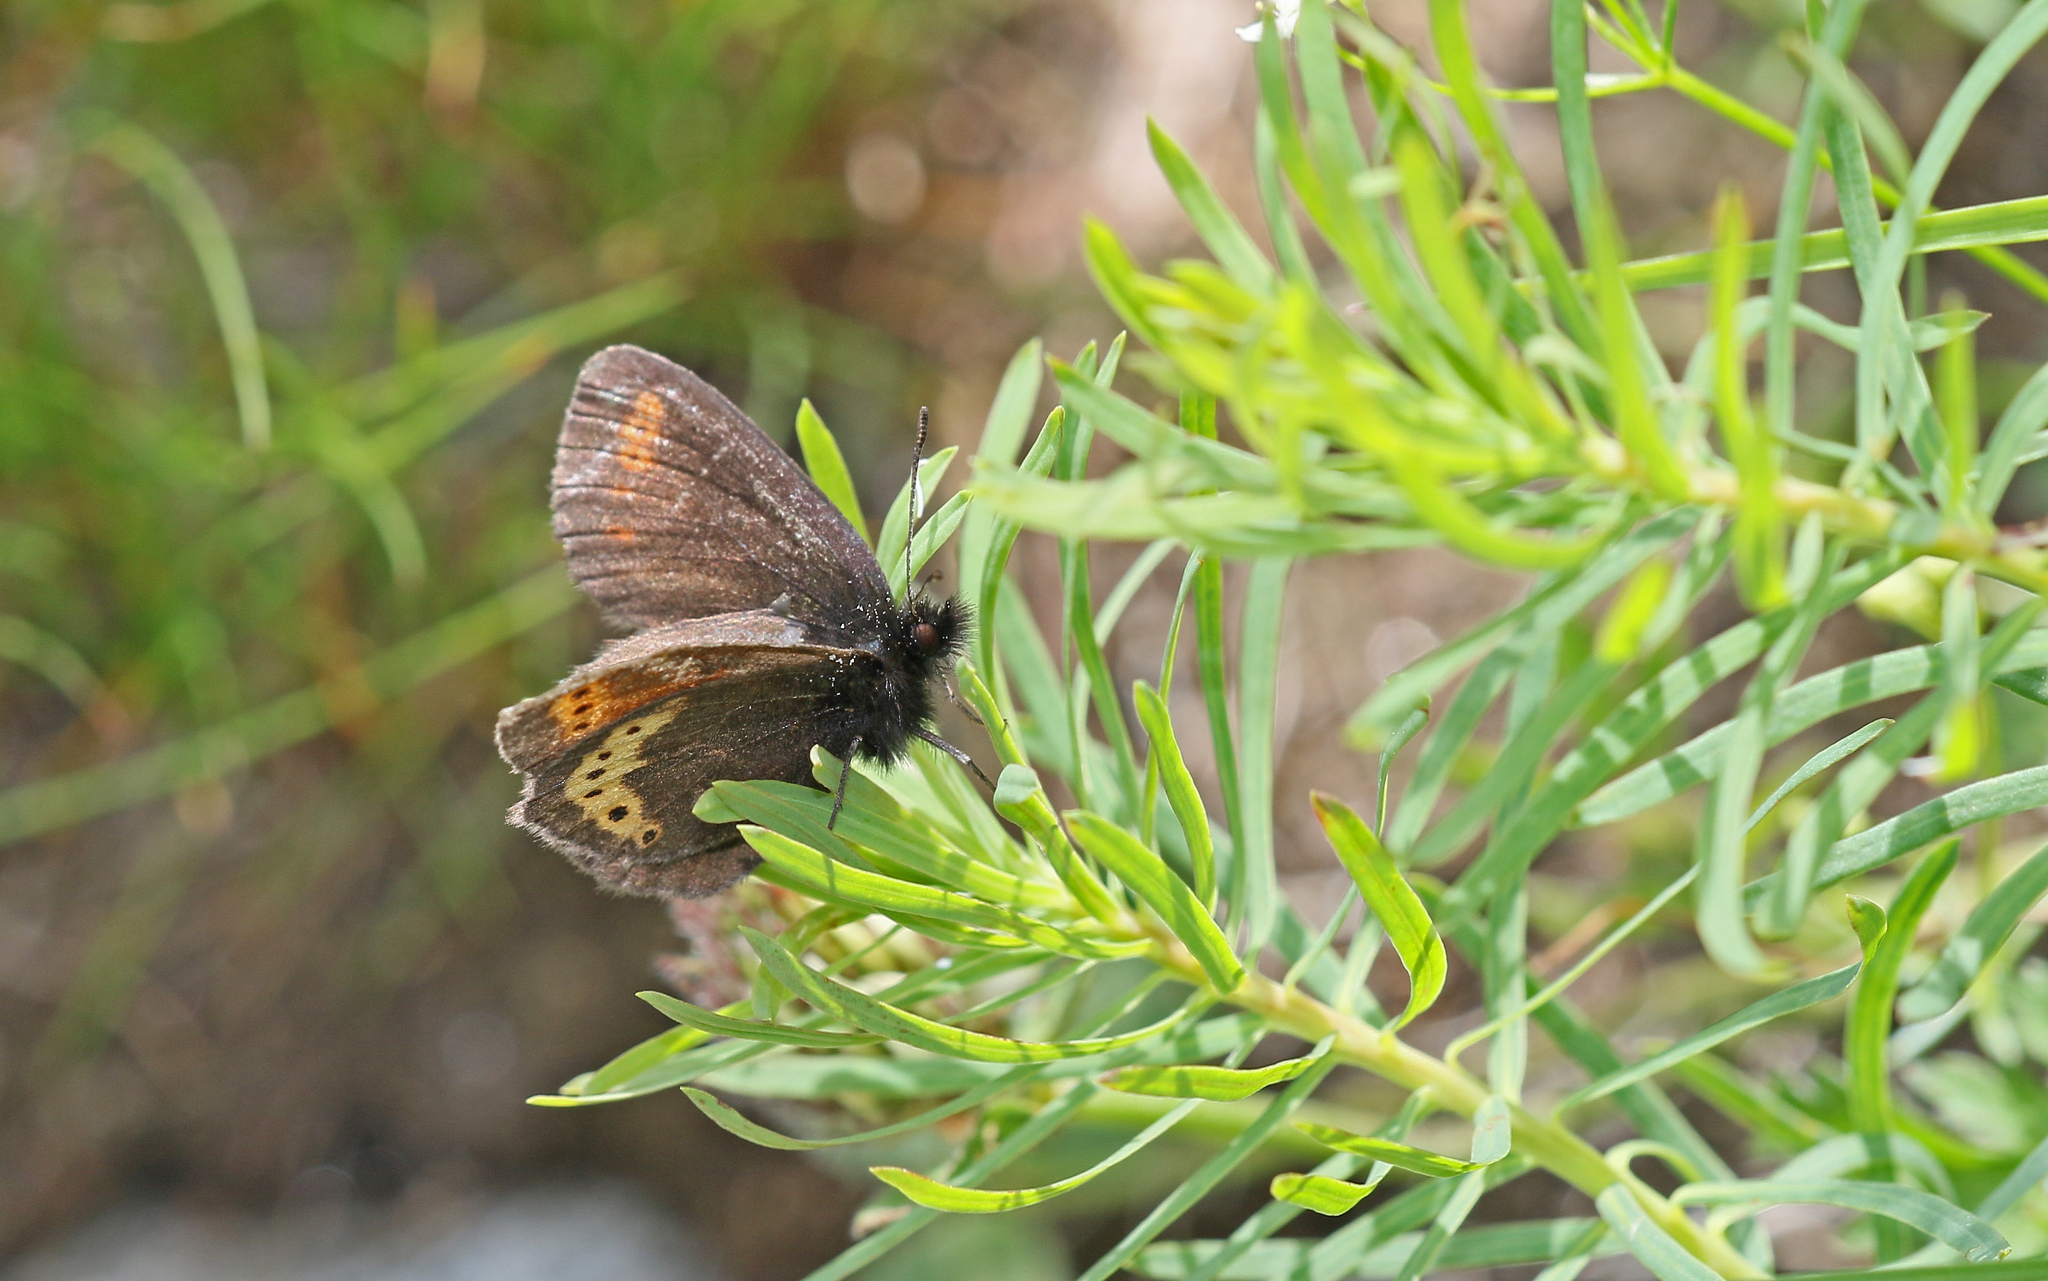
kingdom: Animalia
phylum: Arthropoda
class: Insecta
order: Lepidoptera
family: Nymphalidae
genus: Erebia
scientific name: Erebia flavofasciata
